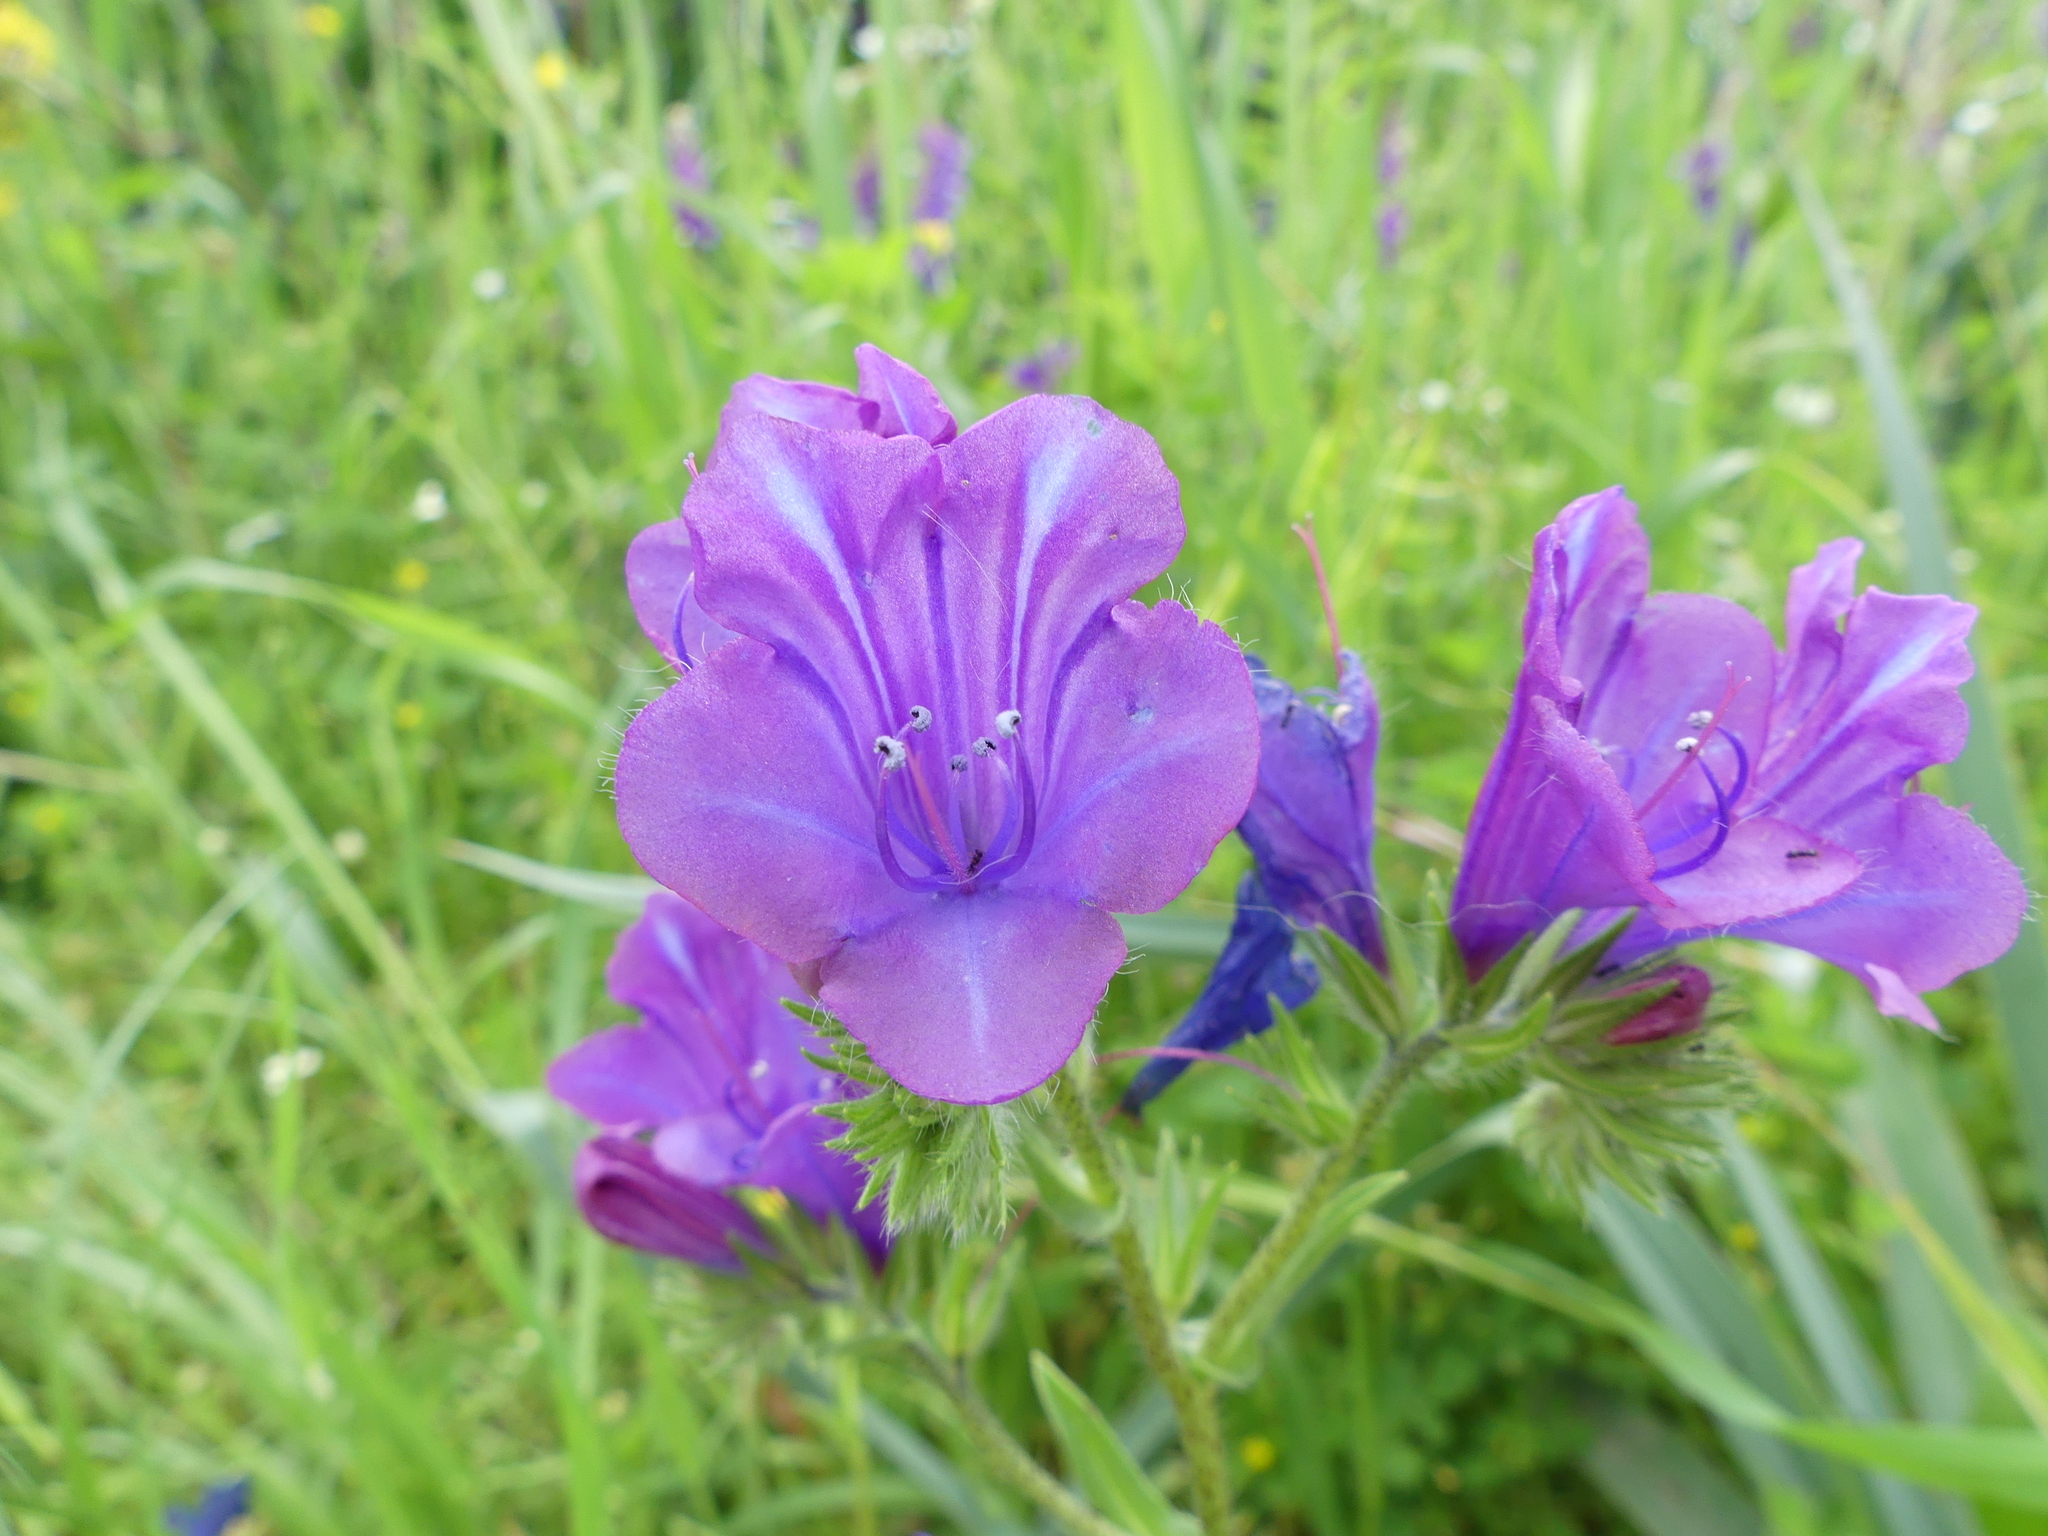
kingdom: Plantae
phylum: Tracheophyta
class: Magnoliopsida
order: Boraginales
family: Boraginaceae
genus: Echium
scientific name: Echium plantagineum
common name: Purple viper's-bugloss
